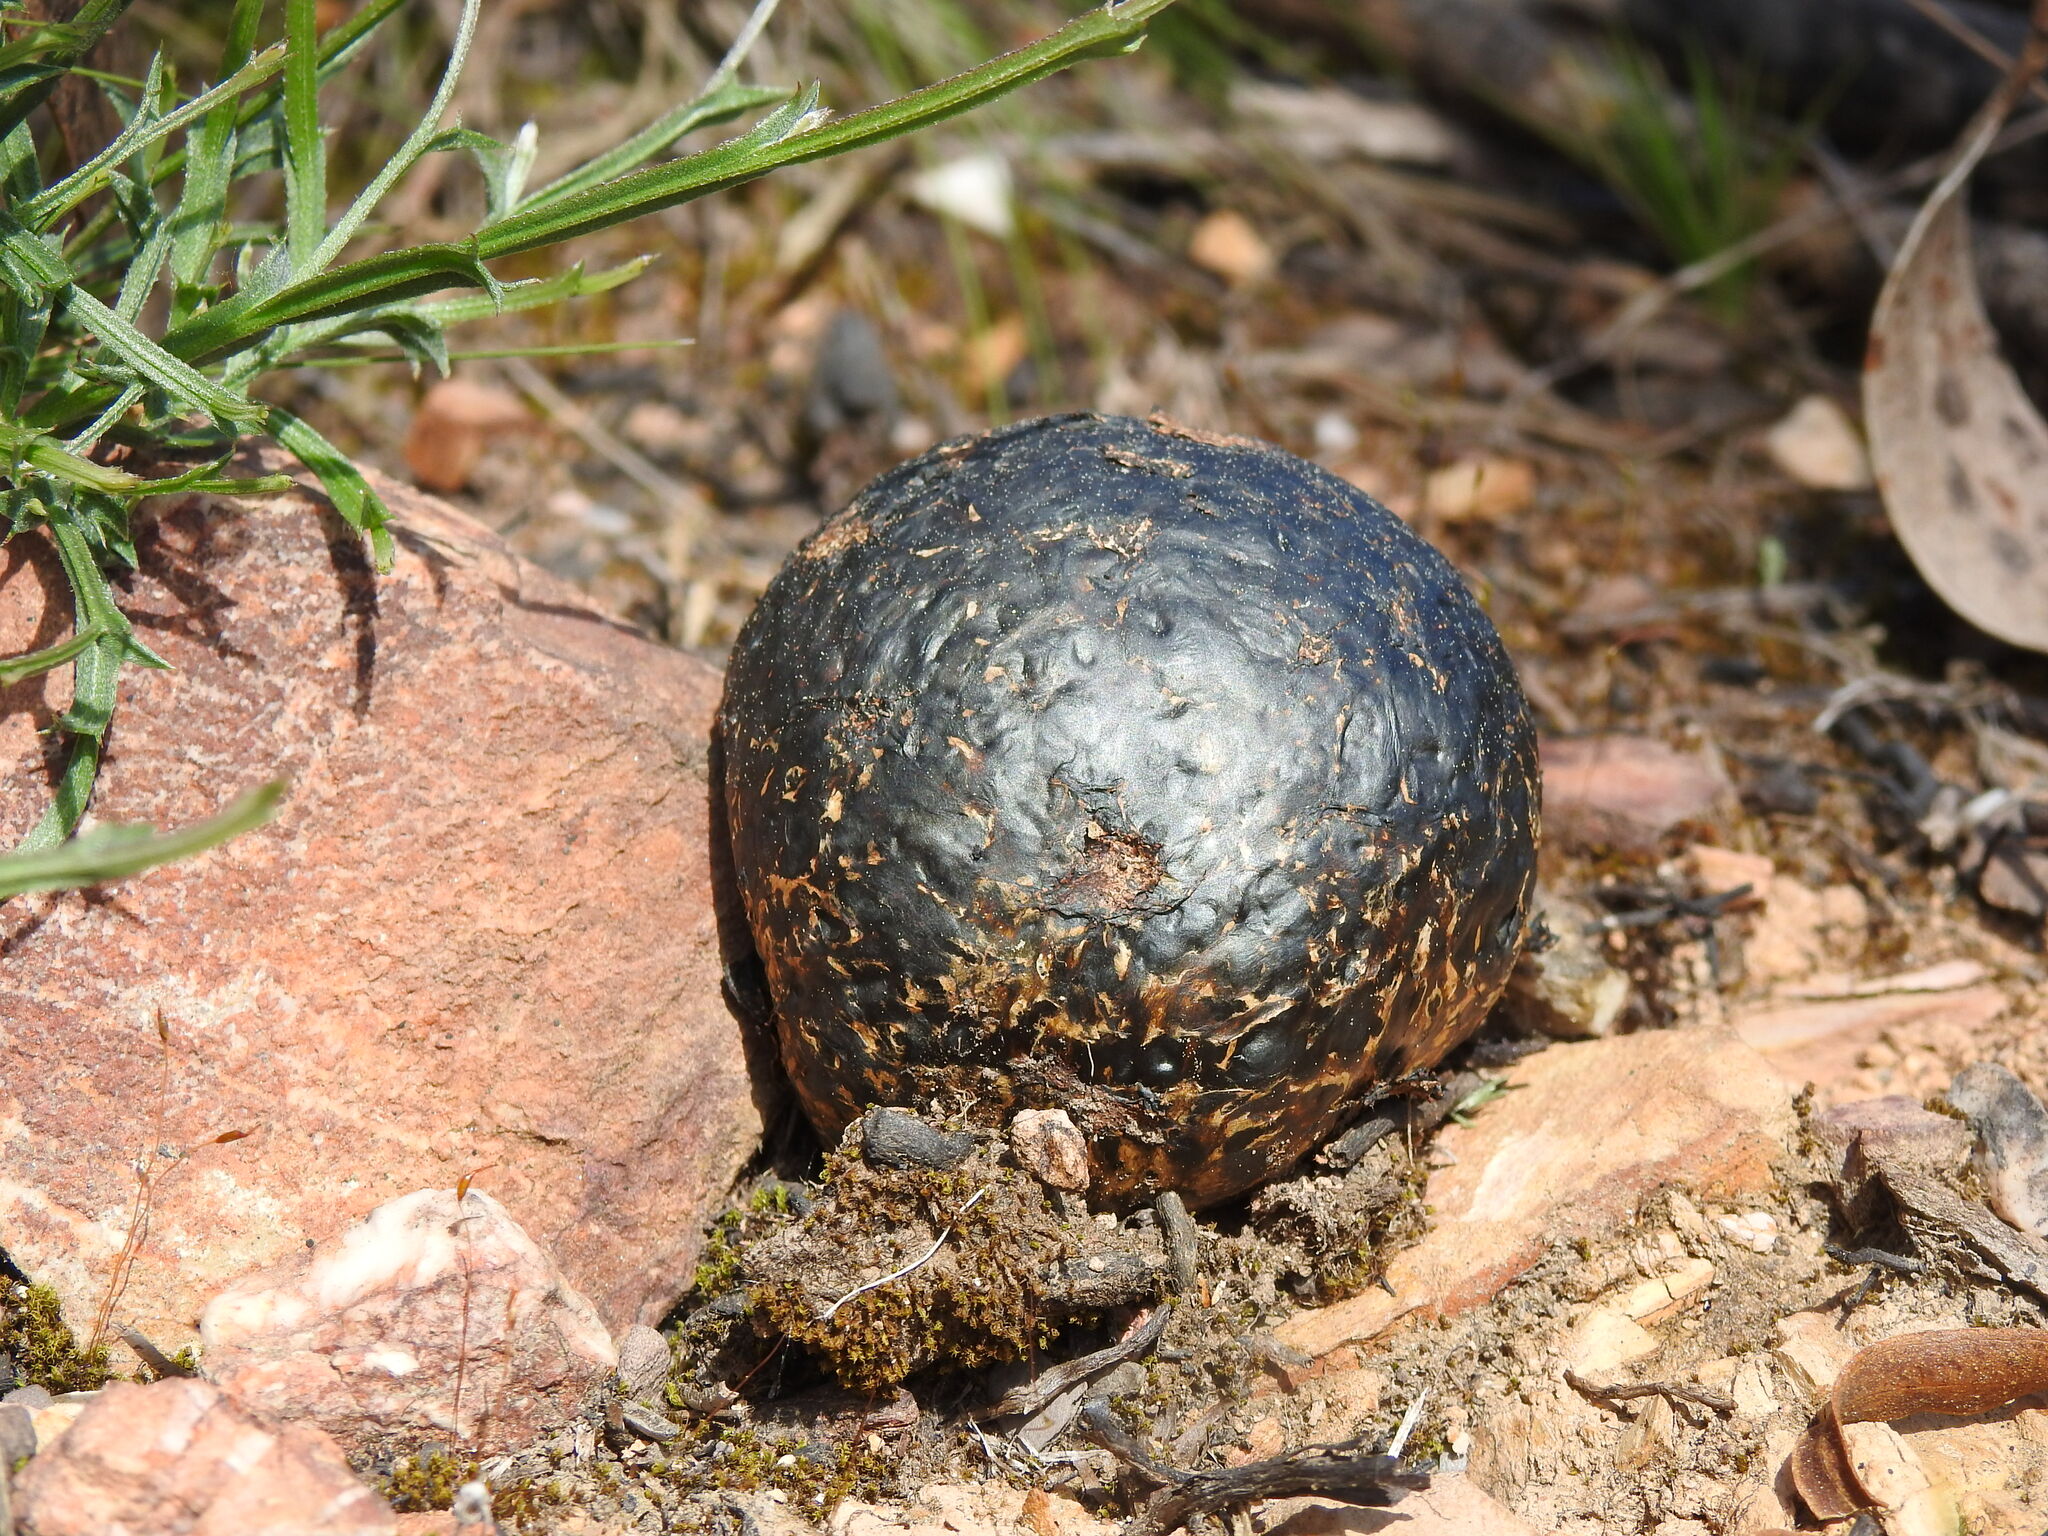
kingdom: Fungi
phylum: Basidiomycota
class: Agaricomycetes
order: Boletales
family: Sclerodermataceae
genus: Pisolithus
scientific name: Pisolithus arhizus
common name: Dyeball
